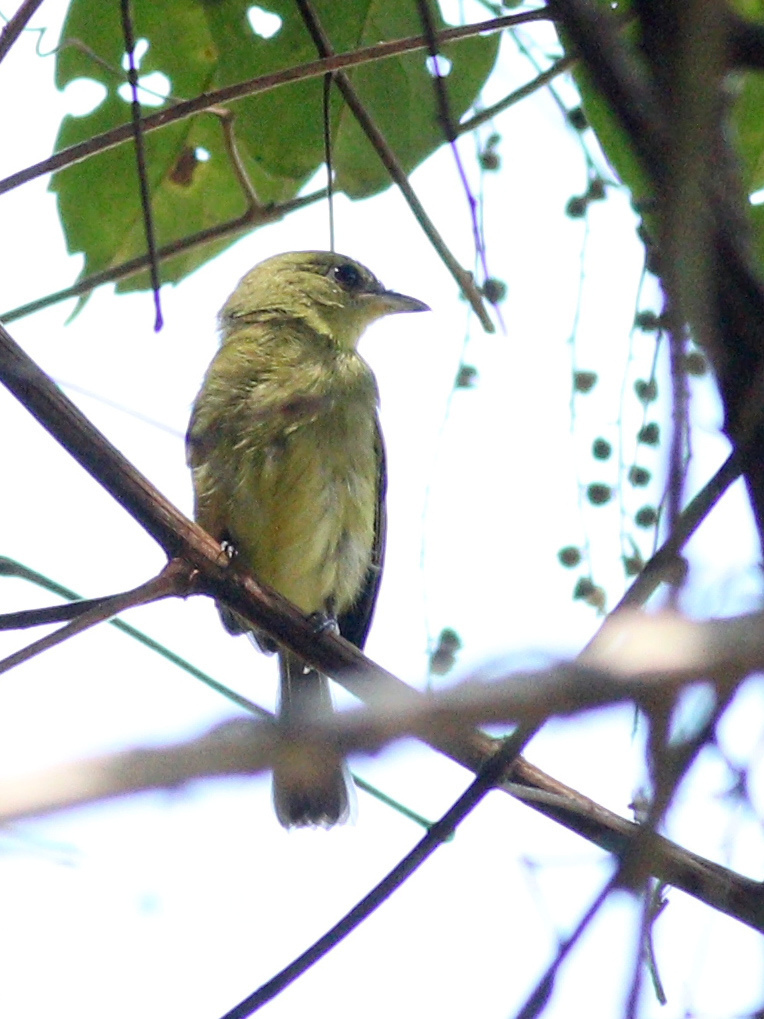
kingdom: Animalia
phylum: Chordata
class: Aves
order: Passeriformes
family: Tyrannidae
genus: Tolmomyias
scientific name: Tolmomyias flaviventris
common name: Ochre-lored flatbill
